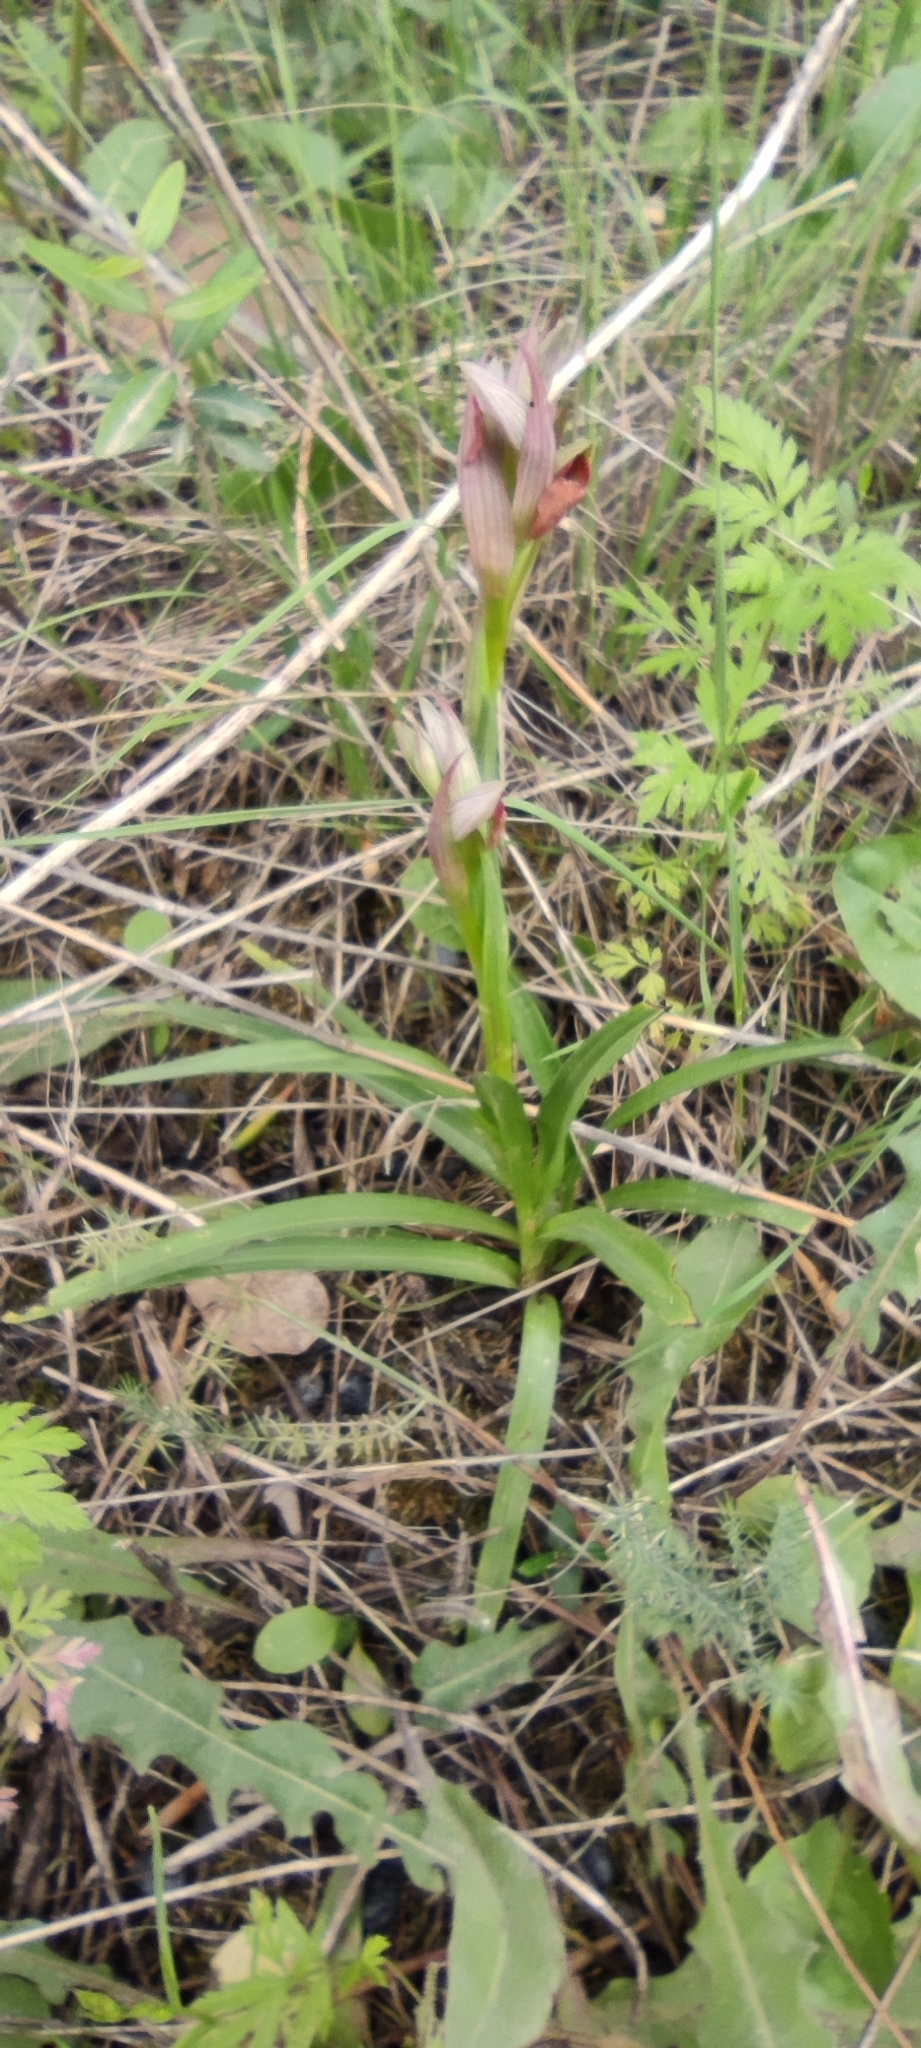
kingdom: Plantae
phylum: Tracheophyta
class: Liliopsida
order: Asparagales
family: Orchidaceae
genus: Serapias
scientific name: Serapias parviflora
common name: Small-flowered tongue-orchid
